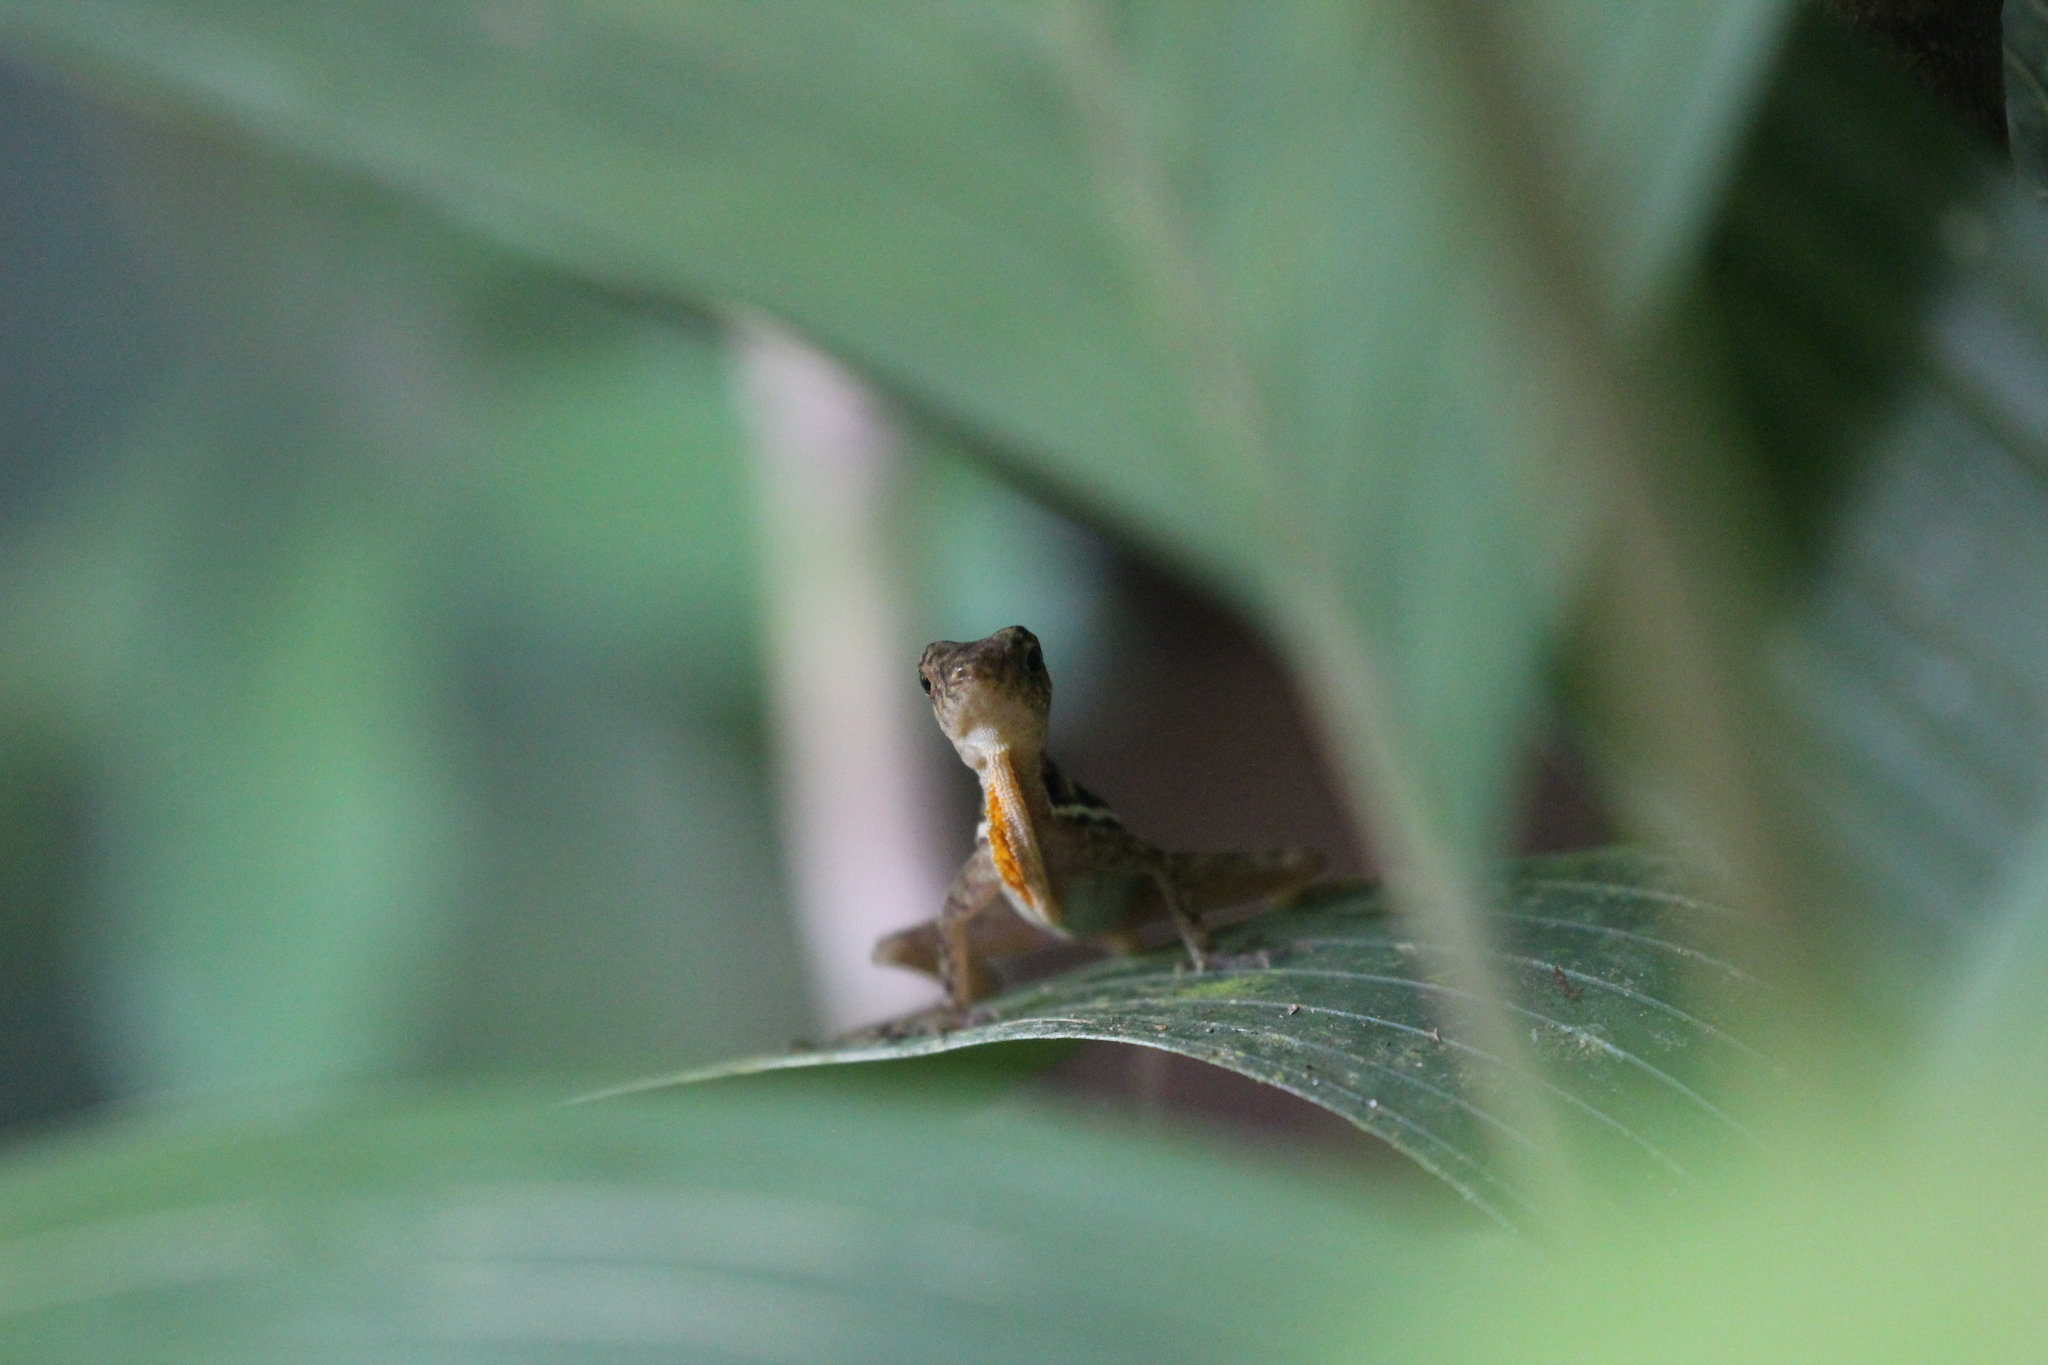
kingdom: Animalia
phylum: Chordata
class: Squamata
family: Dactyloidae
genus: Anolis
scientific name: Anolis osa
